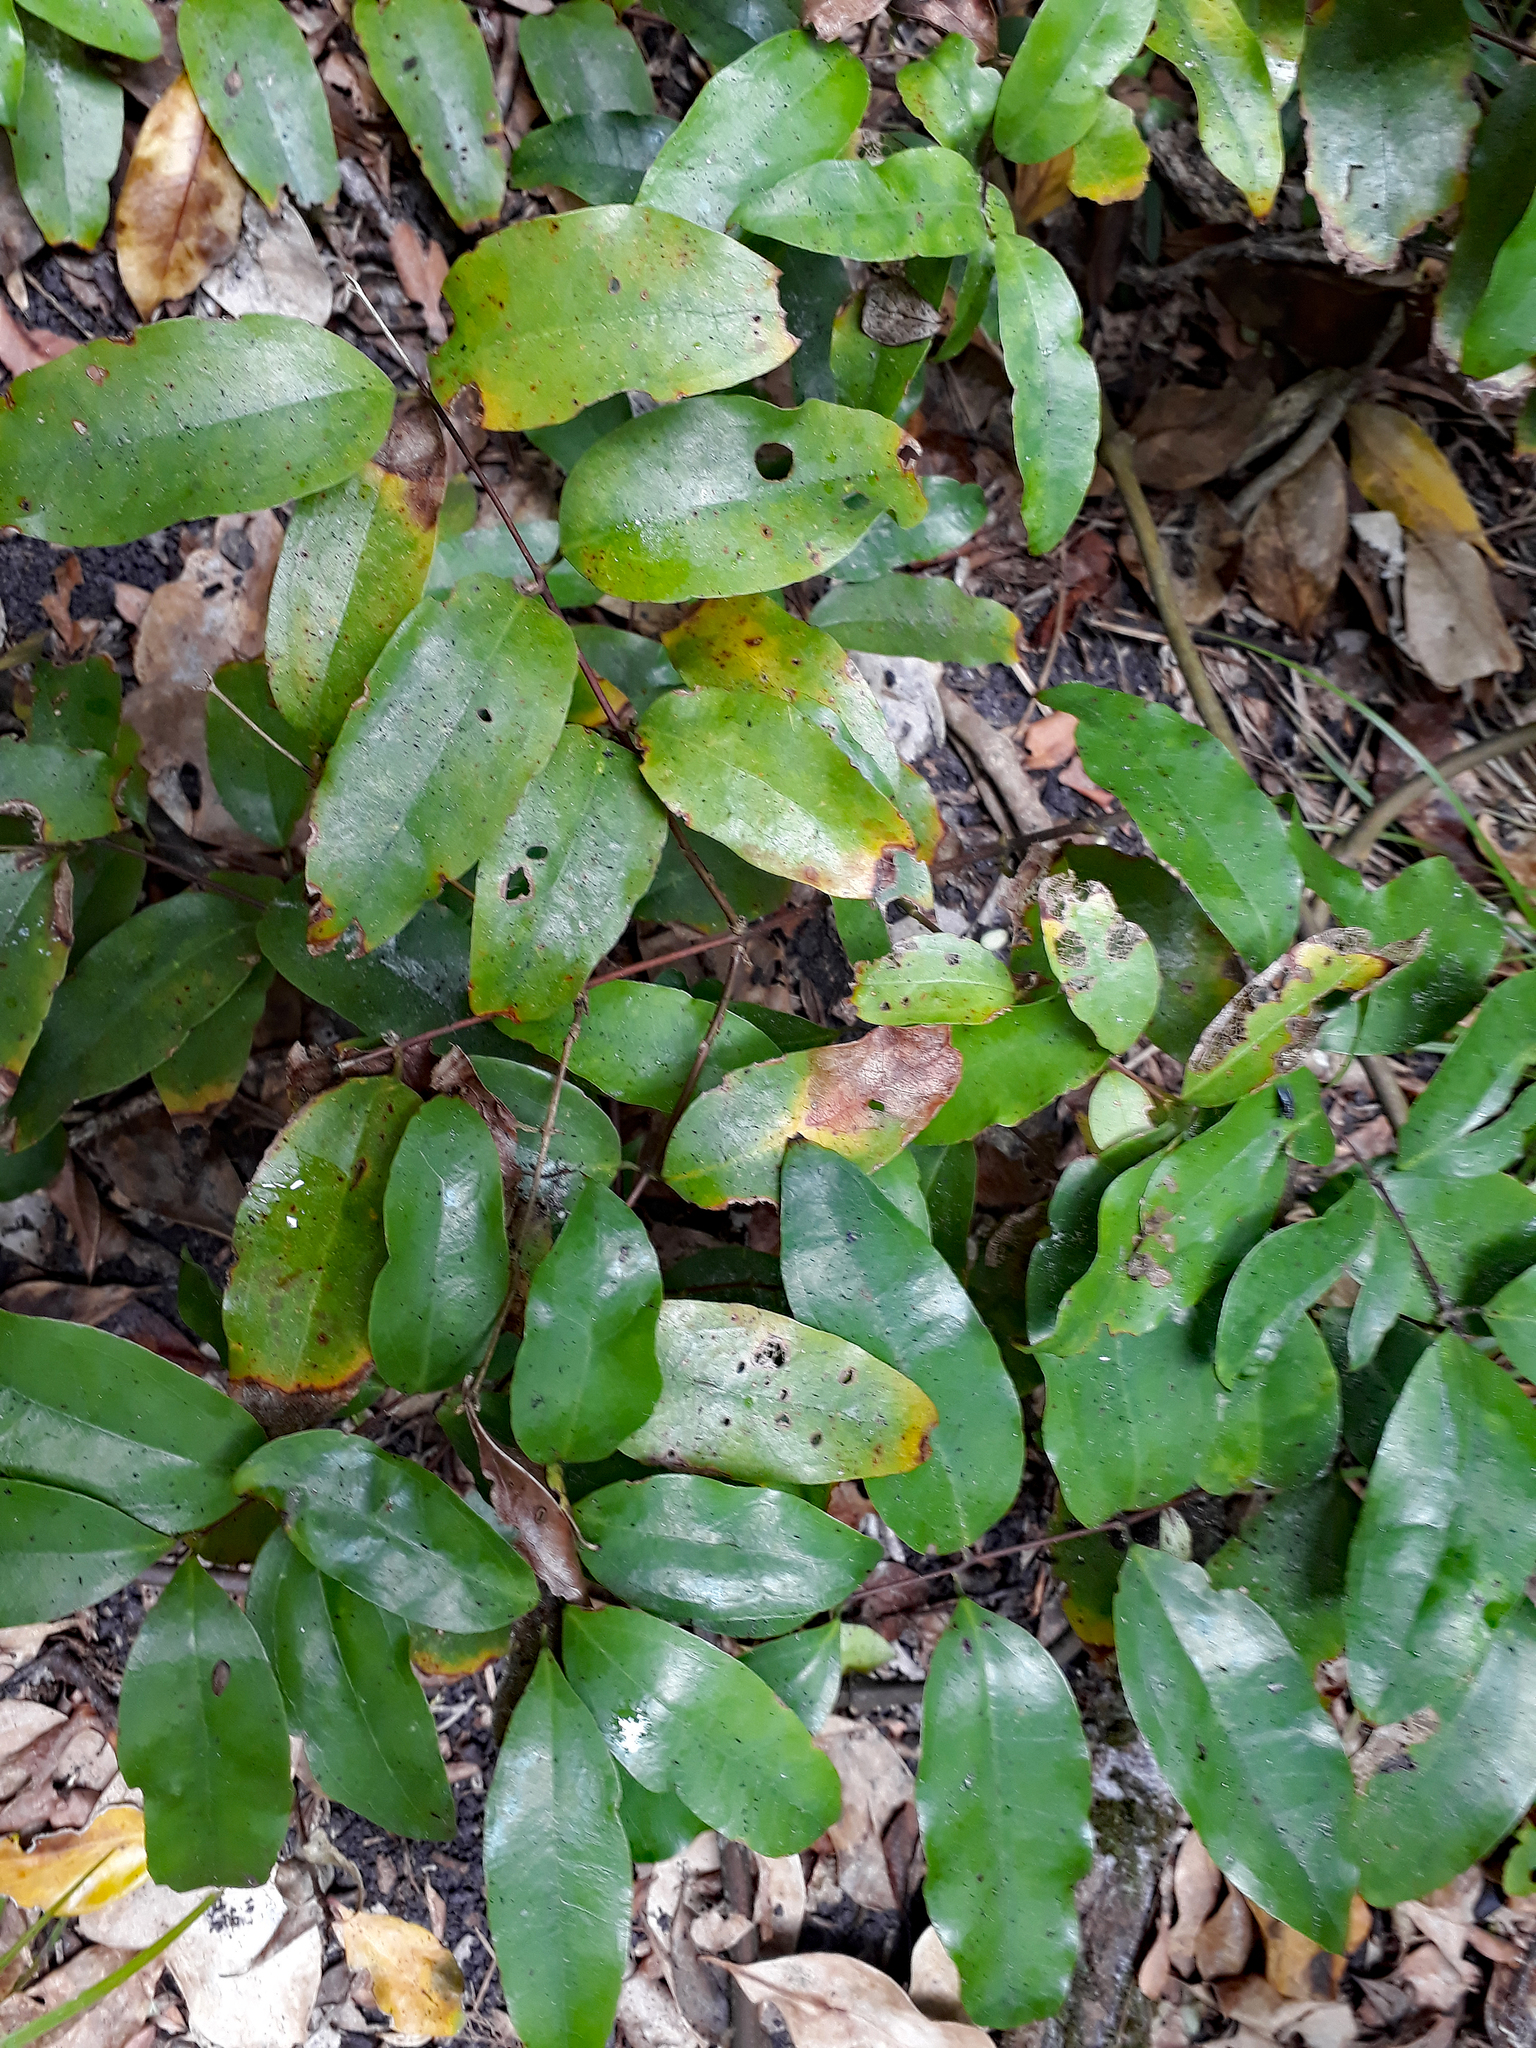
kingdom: Plantae
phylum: Tracheophyta
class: Liliopsida
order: Liliales
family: Ripogonaceae
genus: Ripogonum
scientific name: Ripogonum scandens
